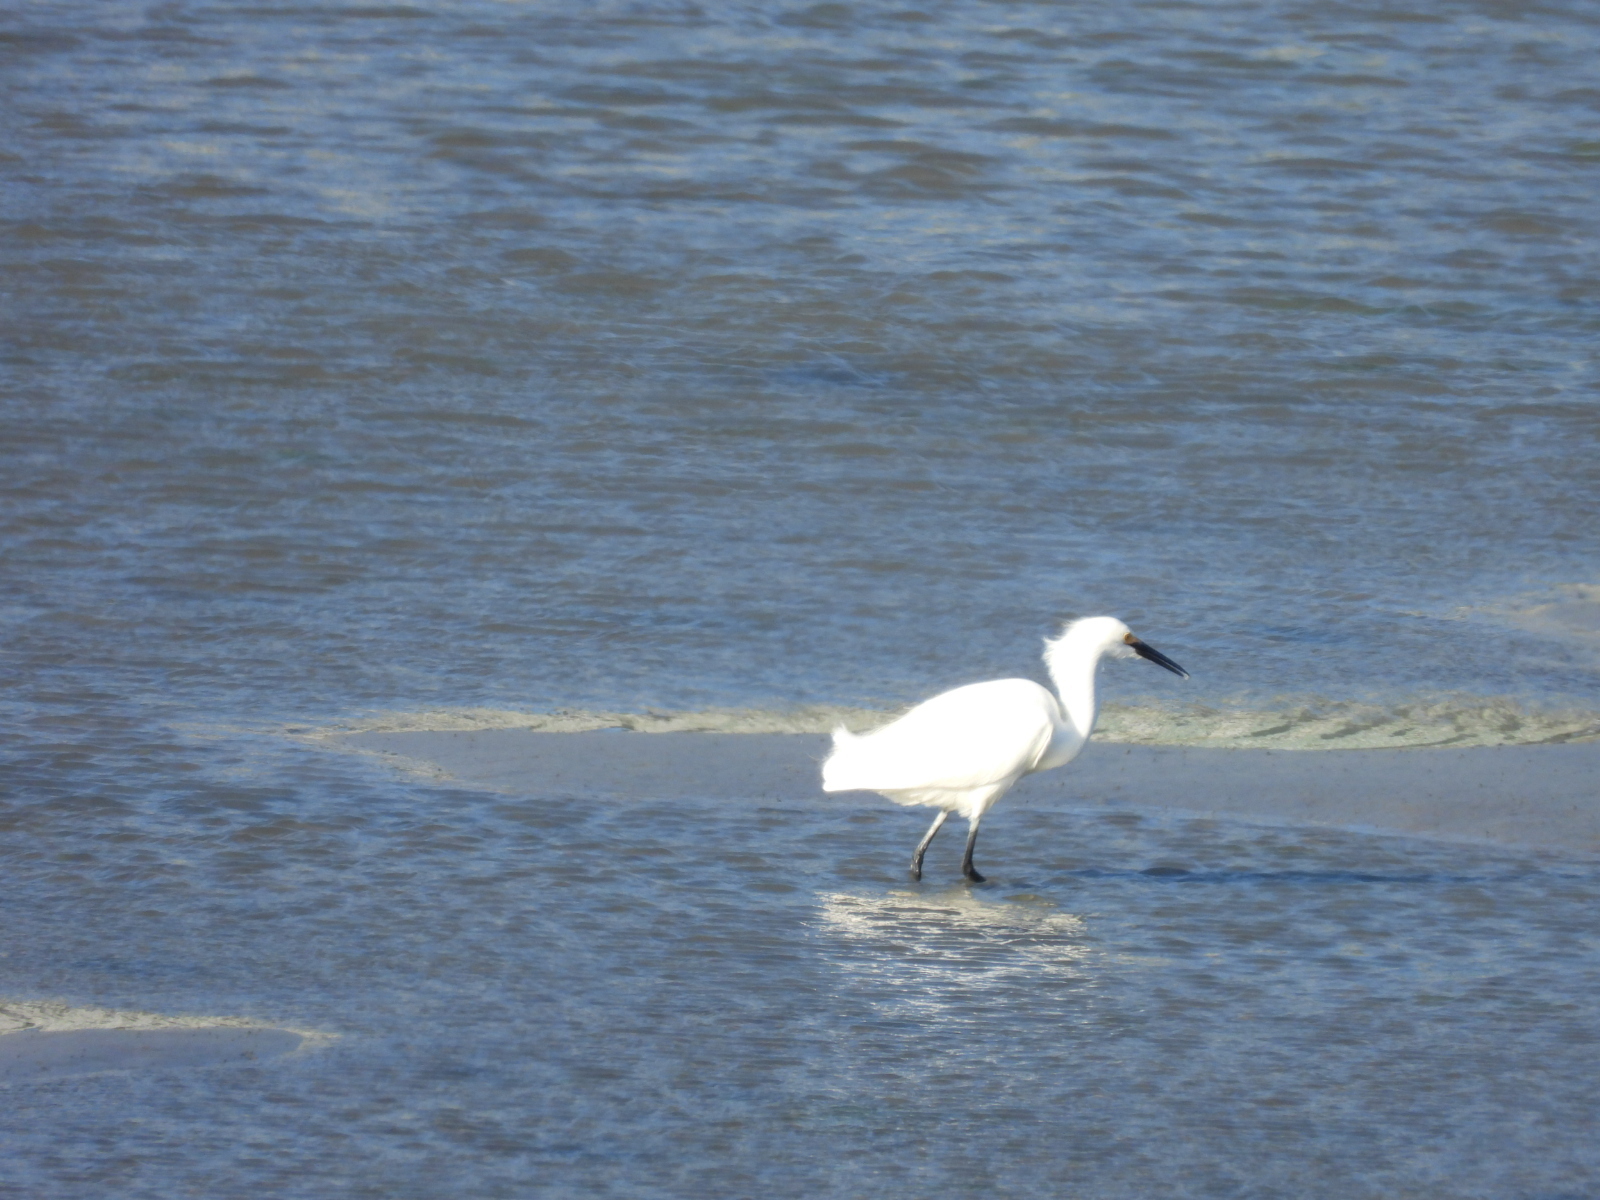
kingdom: Animalia
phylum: Chordata
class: Aves
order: Pelecaniformes
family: Ardeidae
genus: Egretta
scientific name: Egretta thula
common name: Snowy egret
